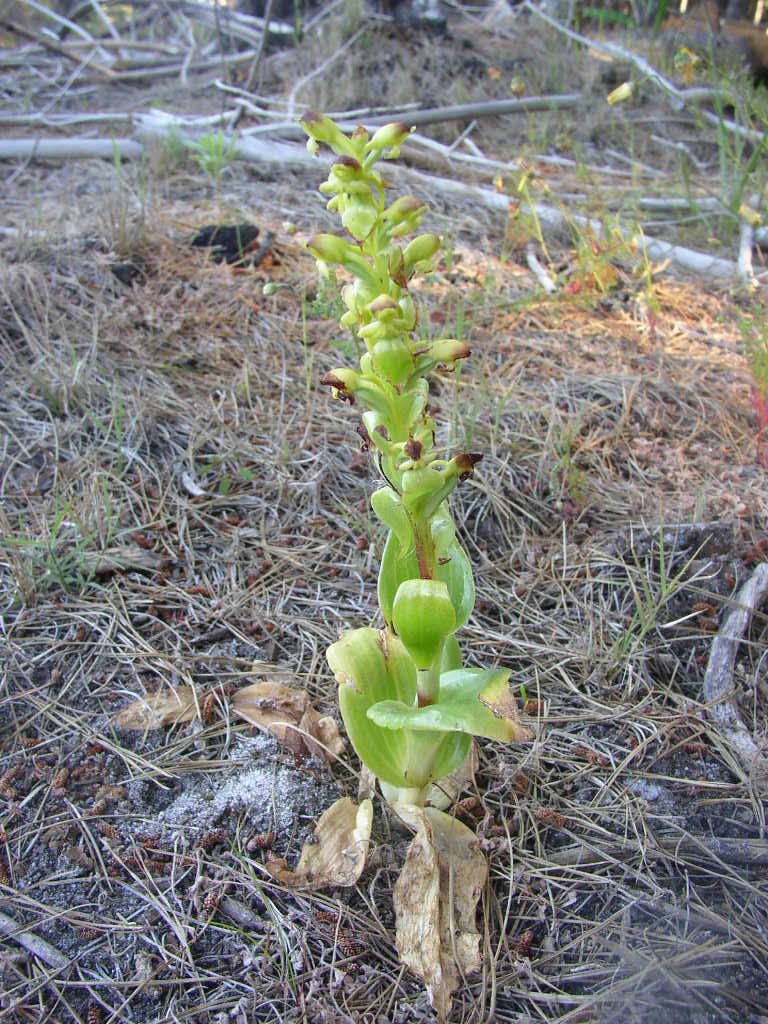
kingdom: Plantae
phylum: Tracheophyta
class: Liliopsida
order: Asparagales
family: Orchidaceae
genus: Satyrium
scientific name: Satyrium odorum
